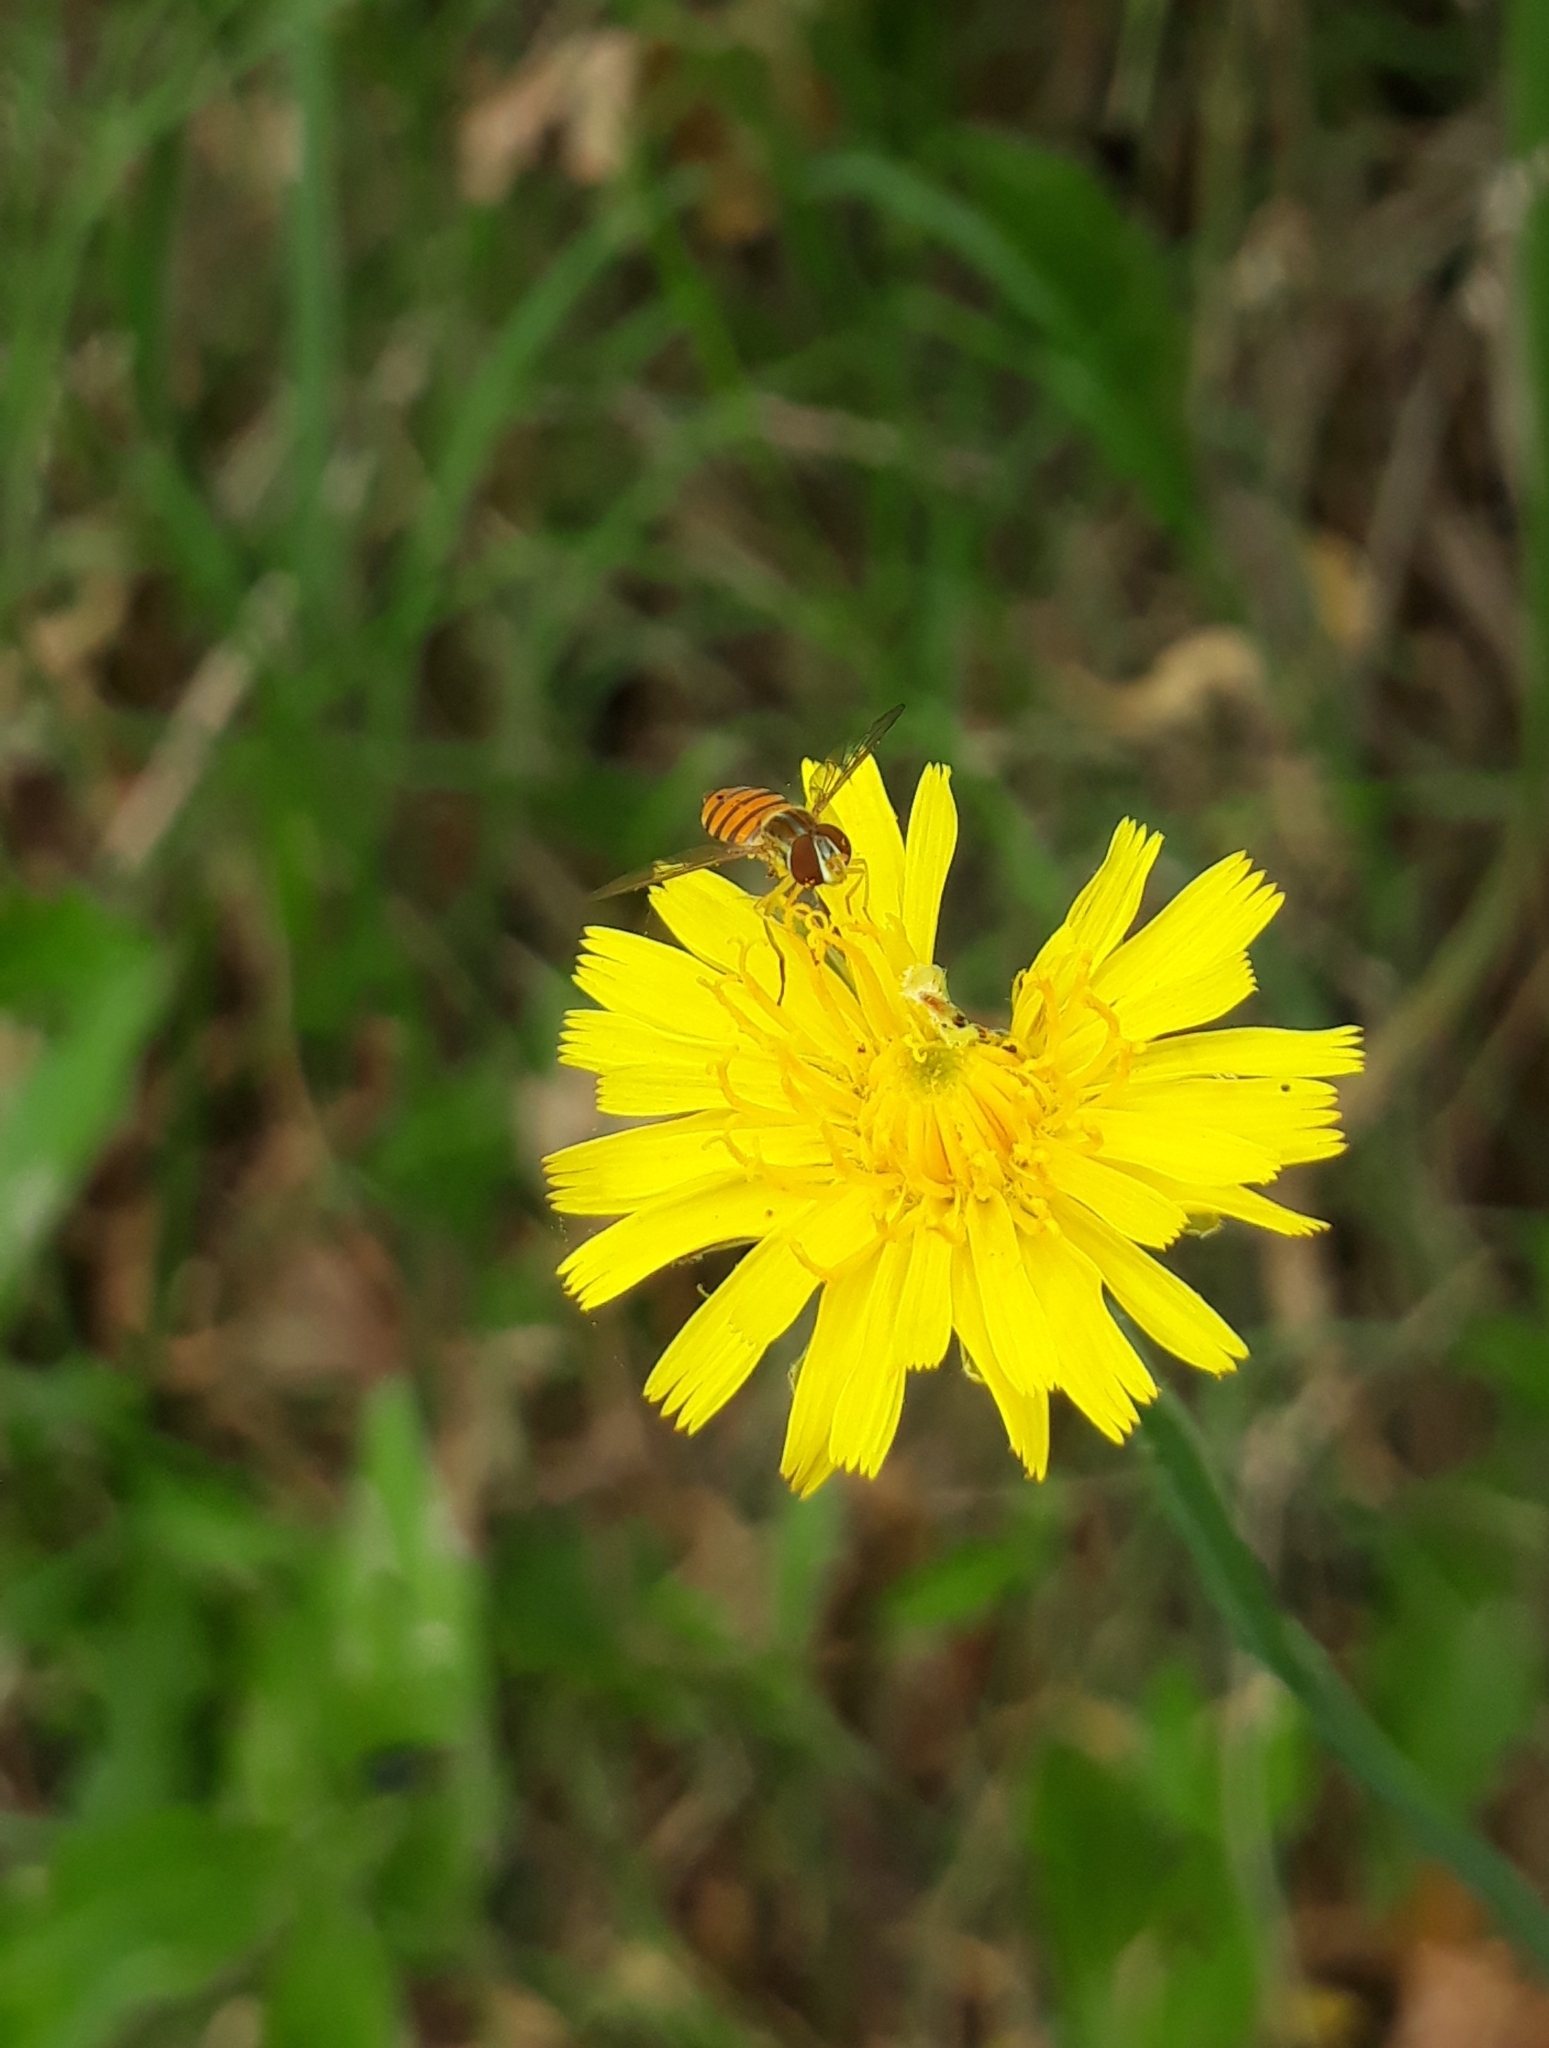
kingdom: Animalia
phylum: Arthropoda
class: Insecta
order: Diptera
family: Syrphidae
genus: Toxomerus
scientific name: Toxomerus
